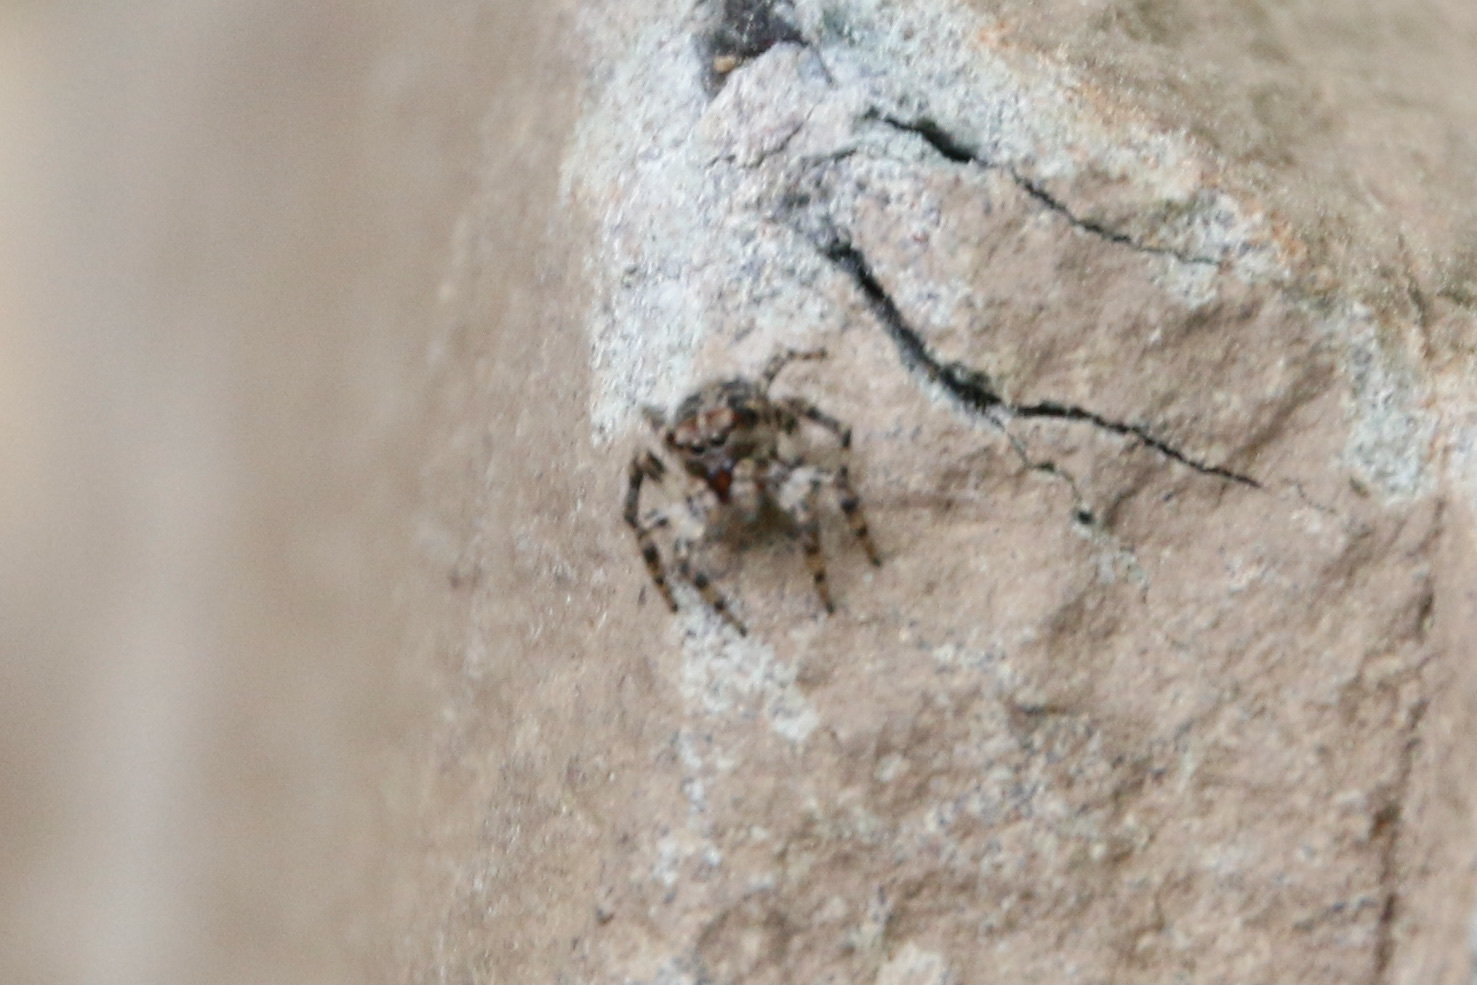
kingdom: Animalia
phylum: Arthropoda
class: Arachnida
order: Araneae
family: Salticidae
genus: Naphrys
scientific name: Naphrys pulex
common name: Flea jumping spider
